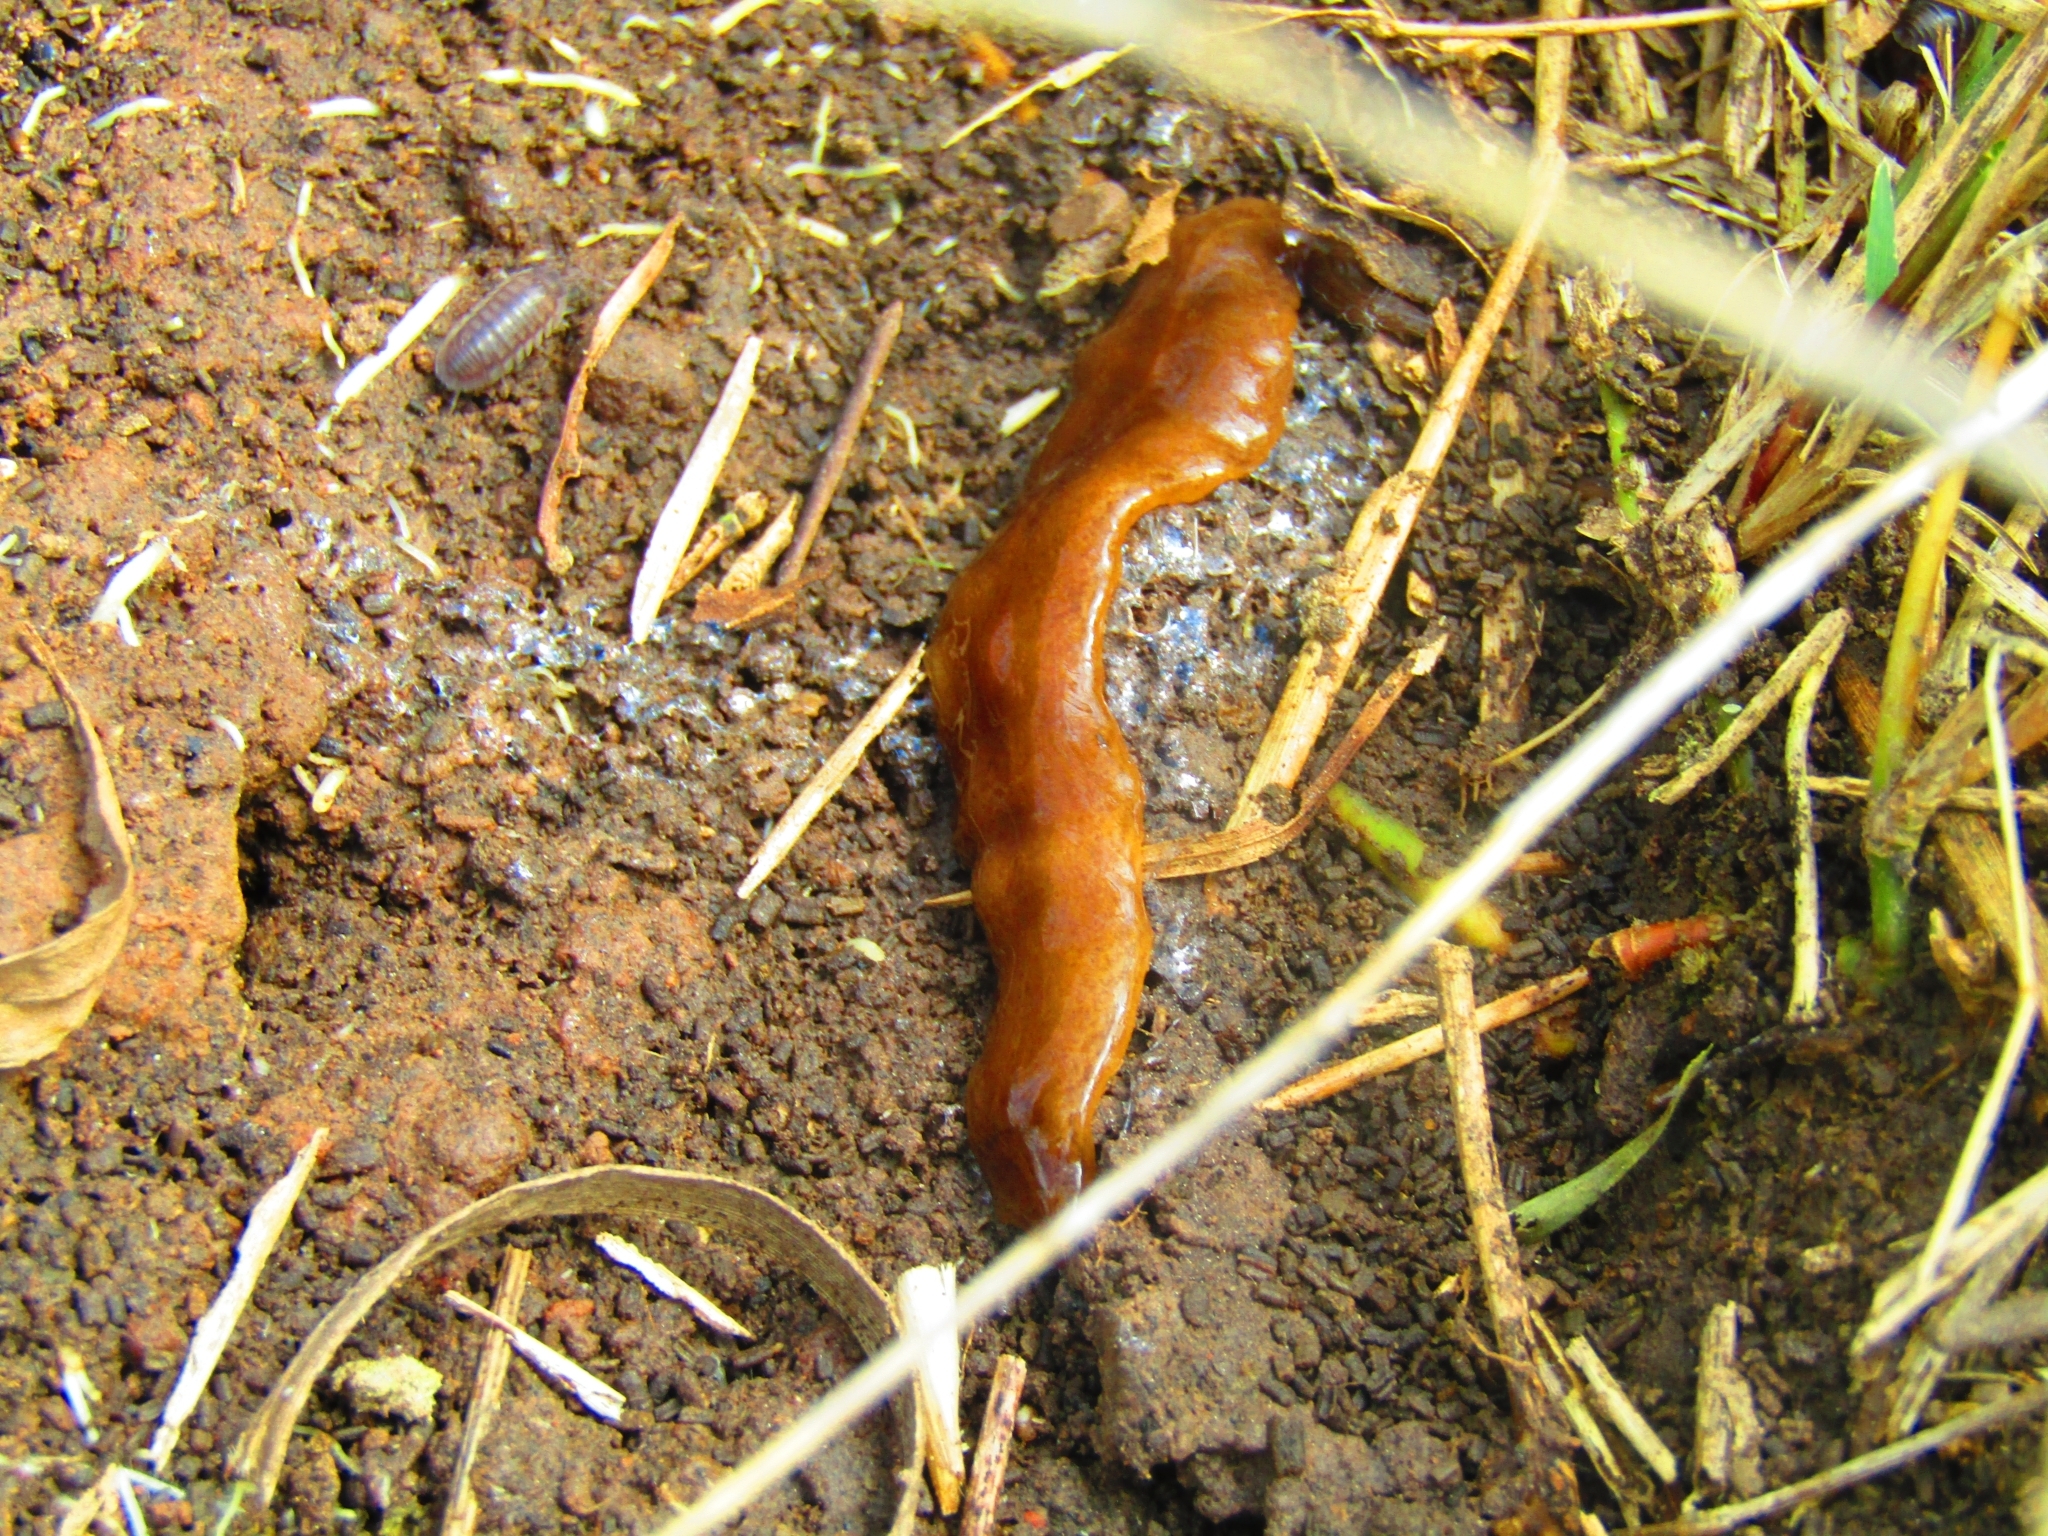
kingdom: Animalia
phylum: Platyhelminthes
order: Tricladida
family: Geoplanidae
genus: Obama
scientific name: Obama nungara
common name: Obama flatworm
